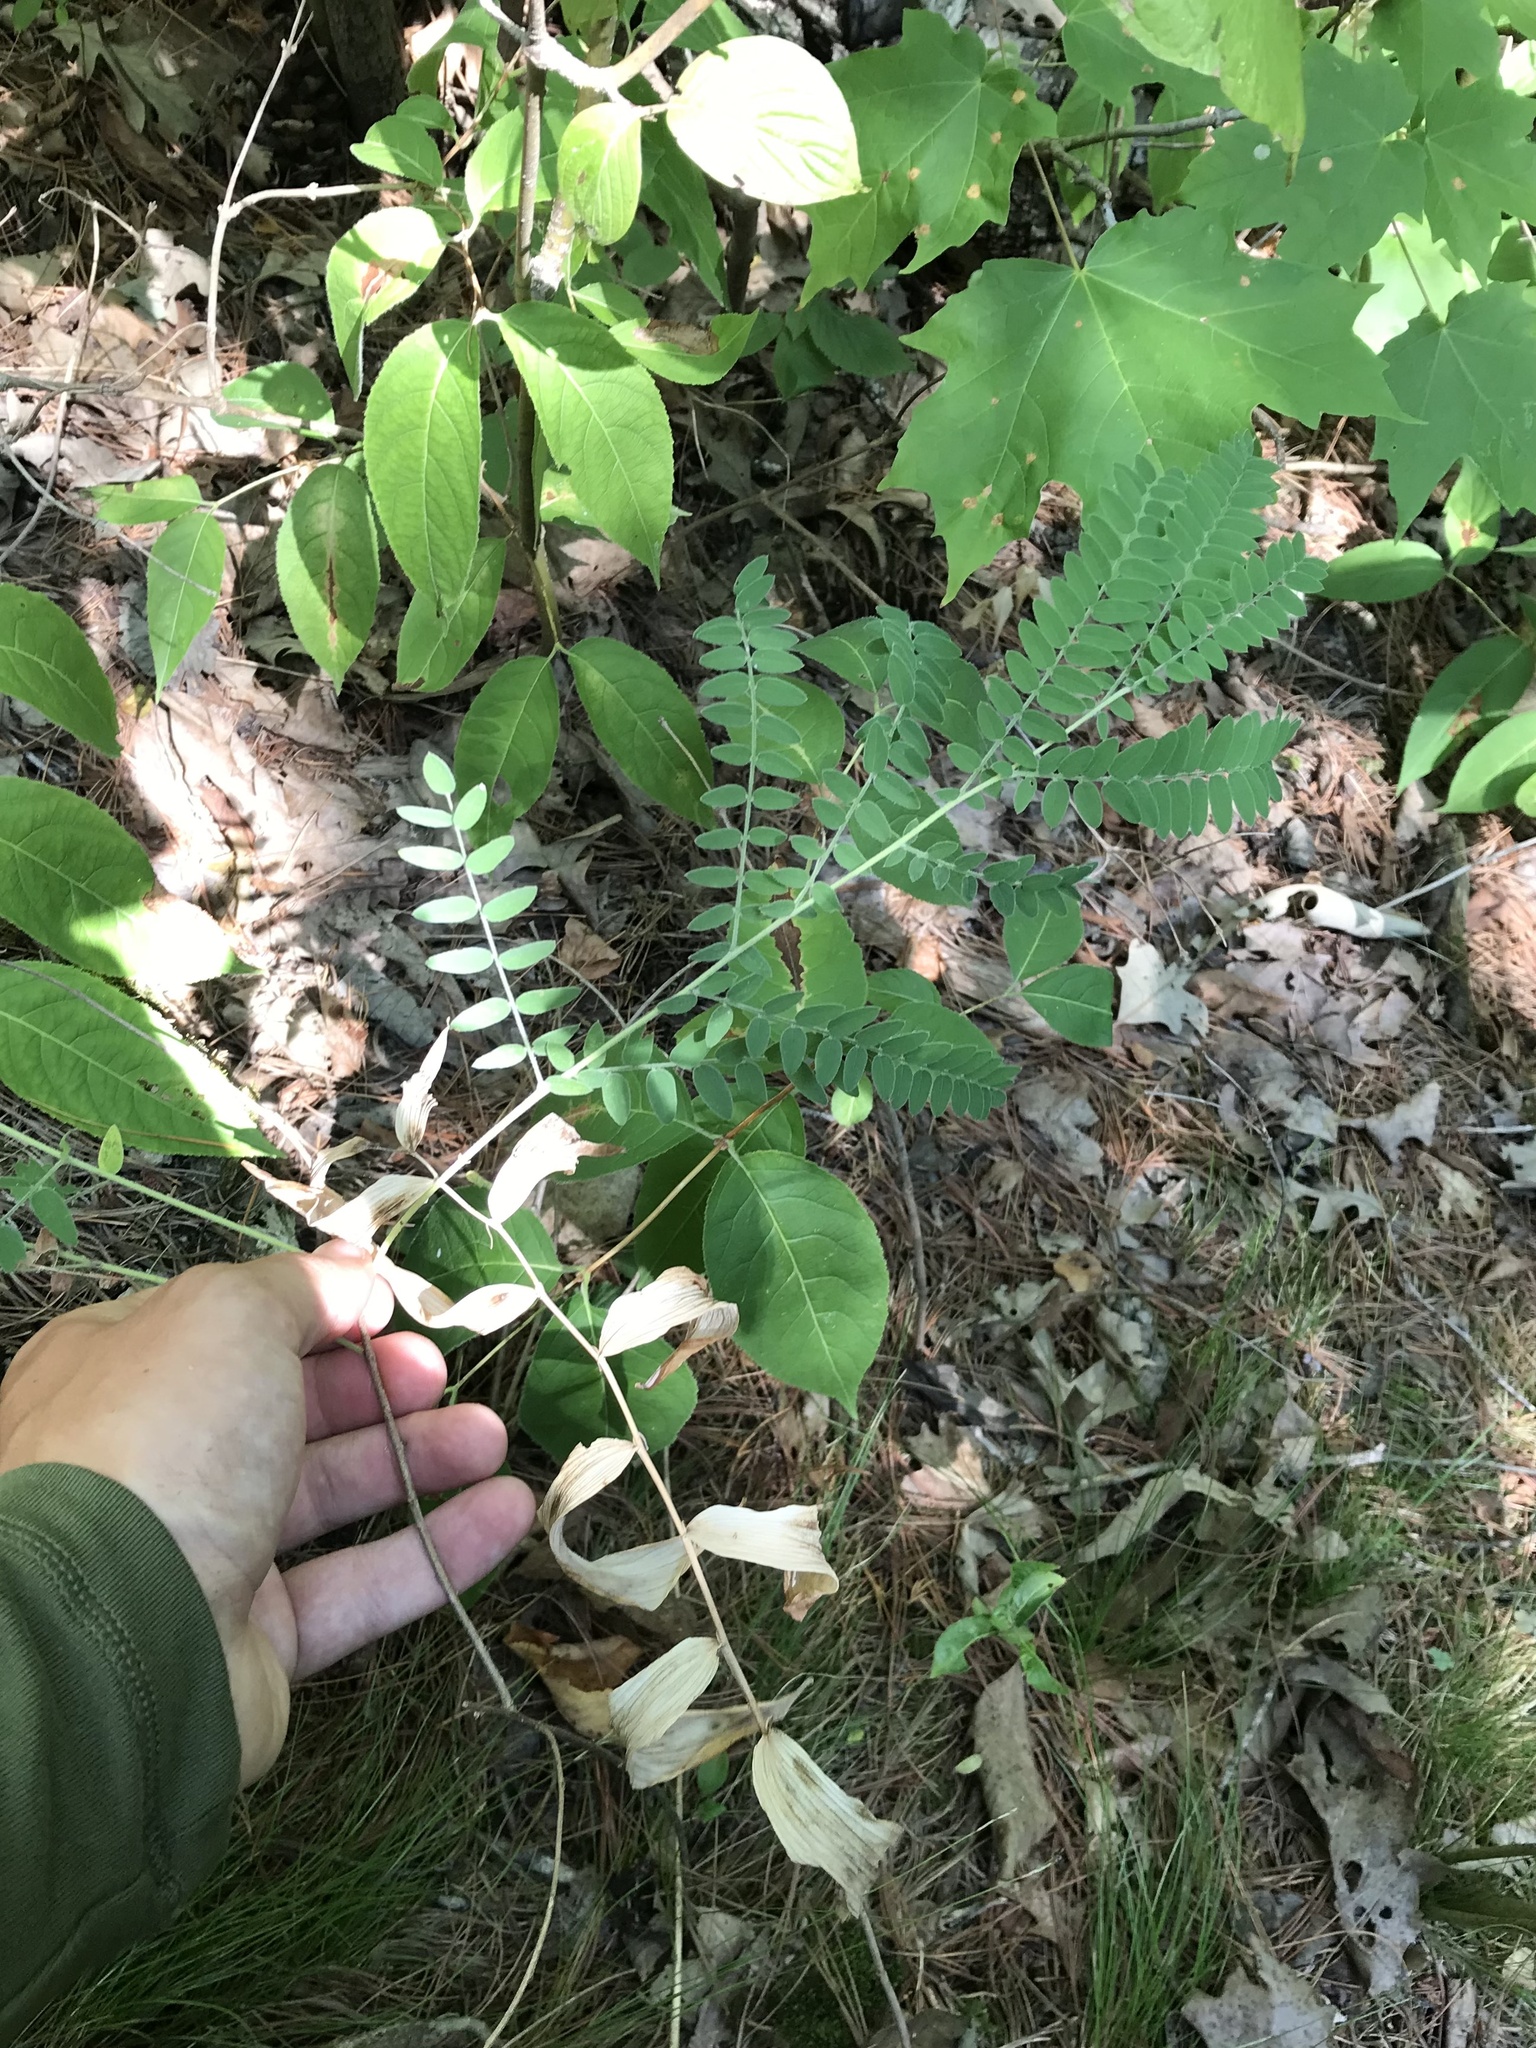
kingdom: Plantae
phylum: Tracheophyta
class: Magnoliopsida
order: Fabales
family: Fabaceae
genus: Amorpha
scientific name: Amorpha canescens
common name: Leadplant
